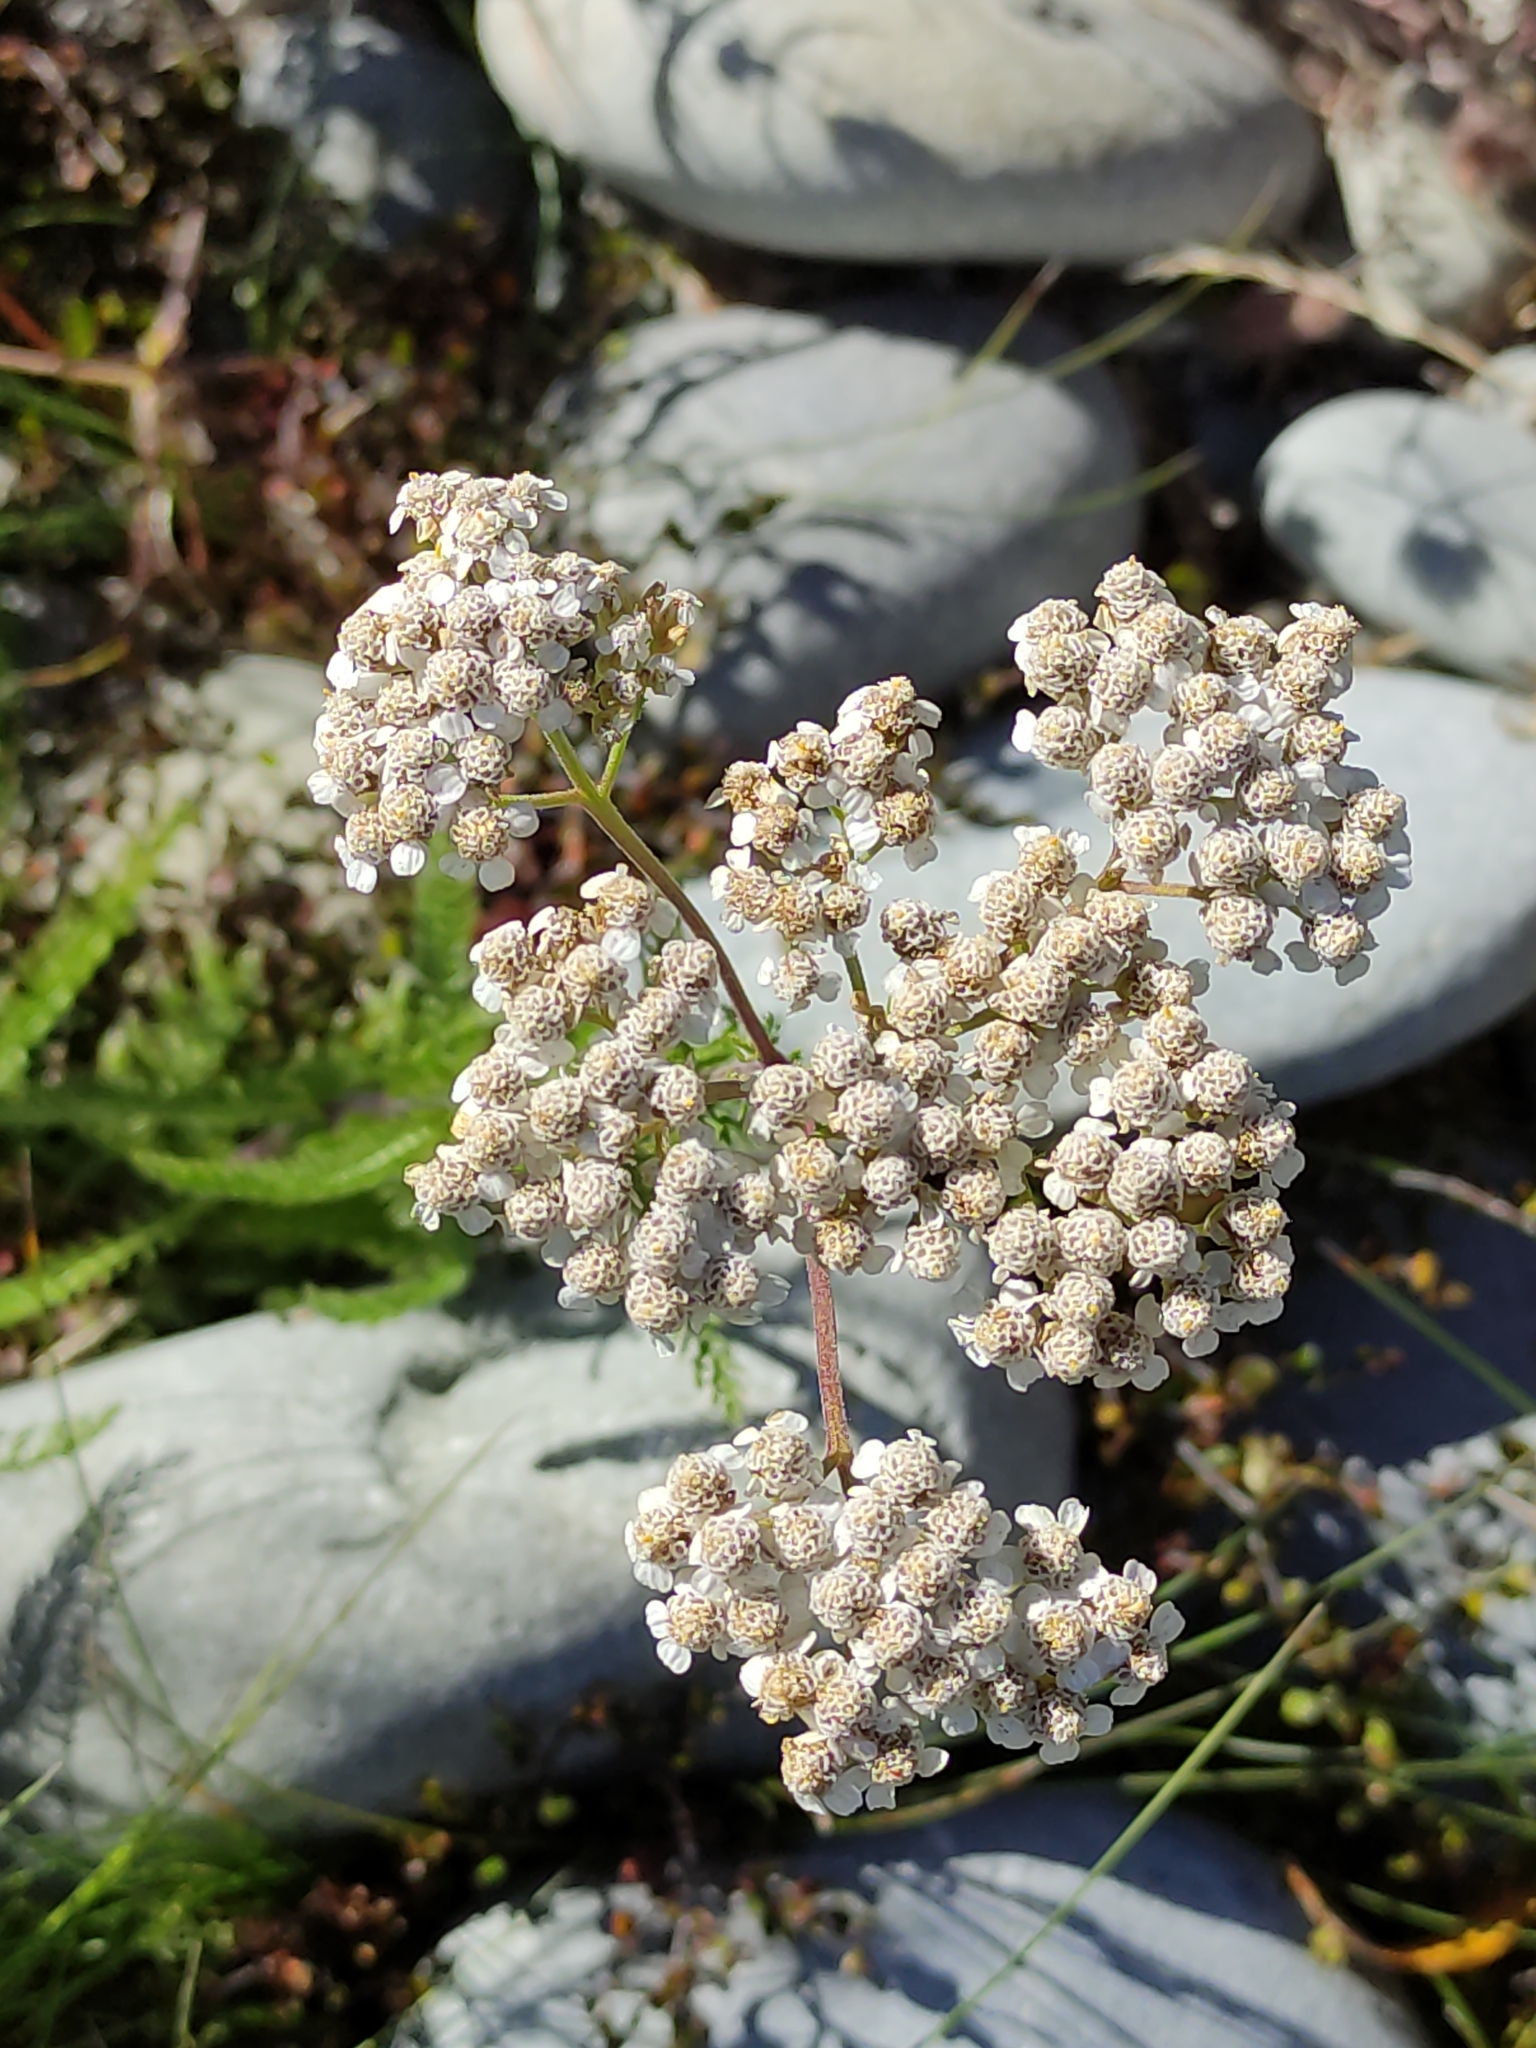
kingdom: Plantae
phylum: Tracheophyta
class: Magnoliopsida
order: Asterales
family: Asteraceae
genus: Achillea
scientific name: Achillea millefolium
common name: Yarrow
